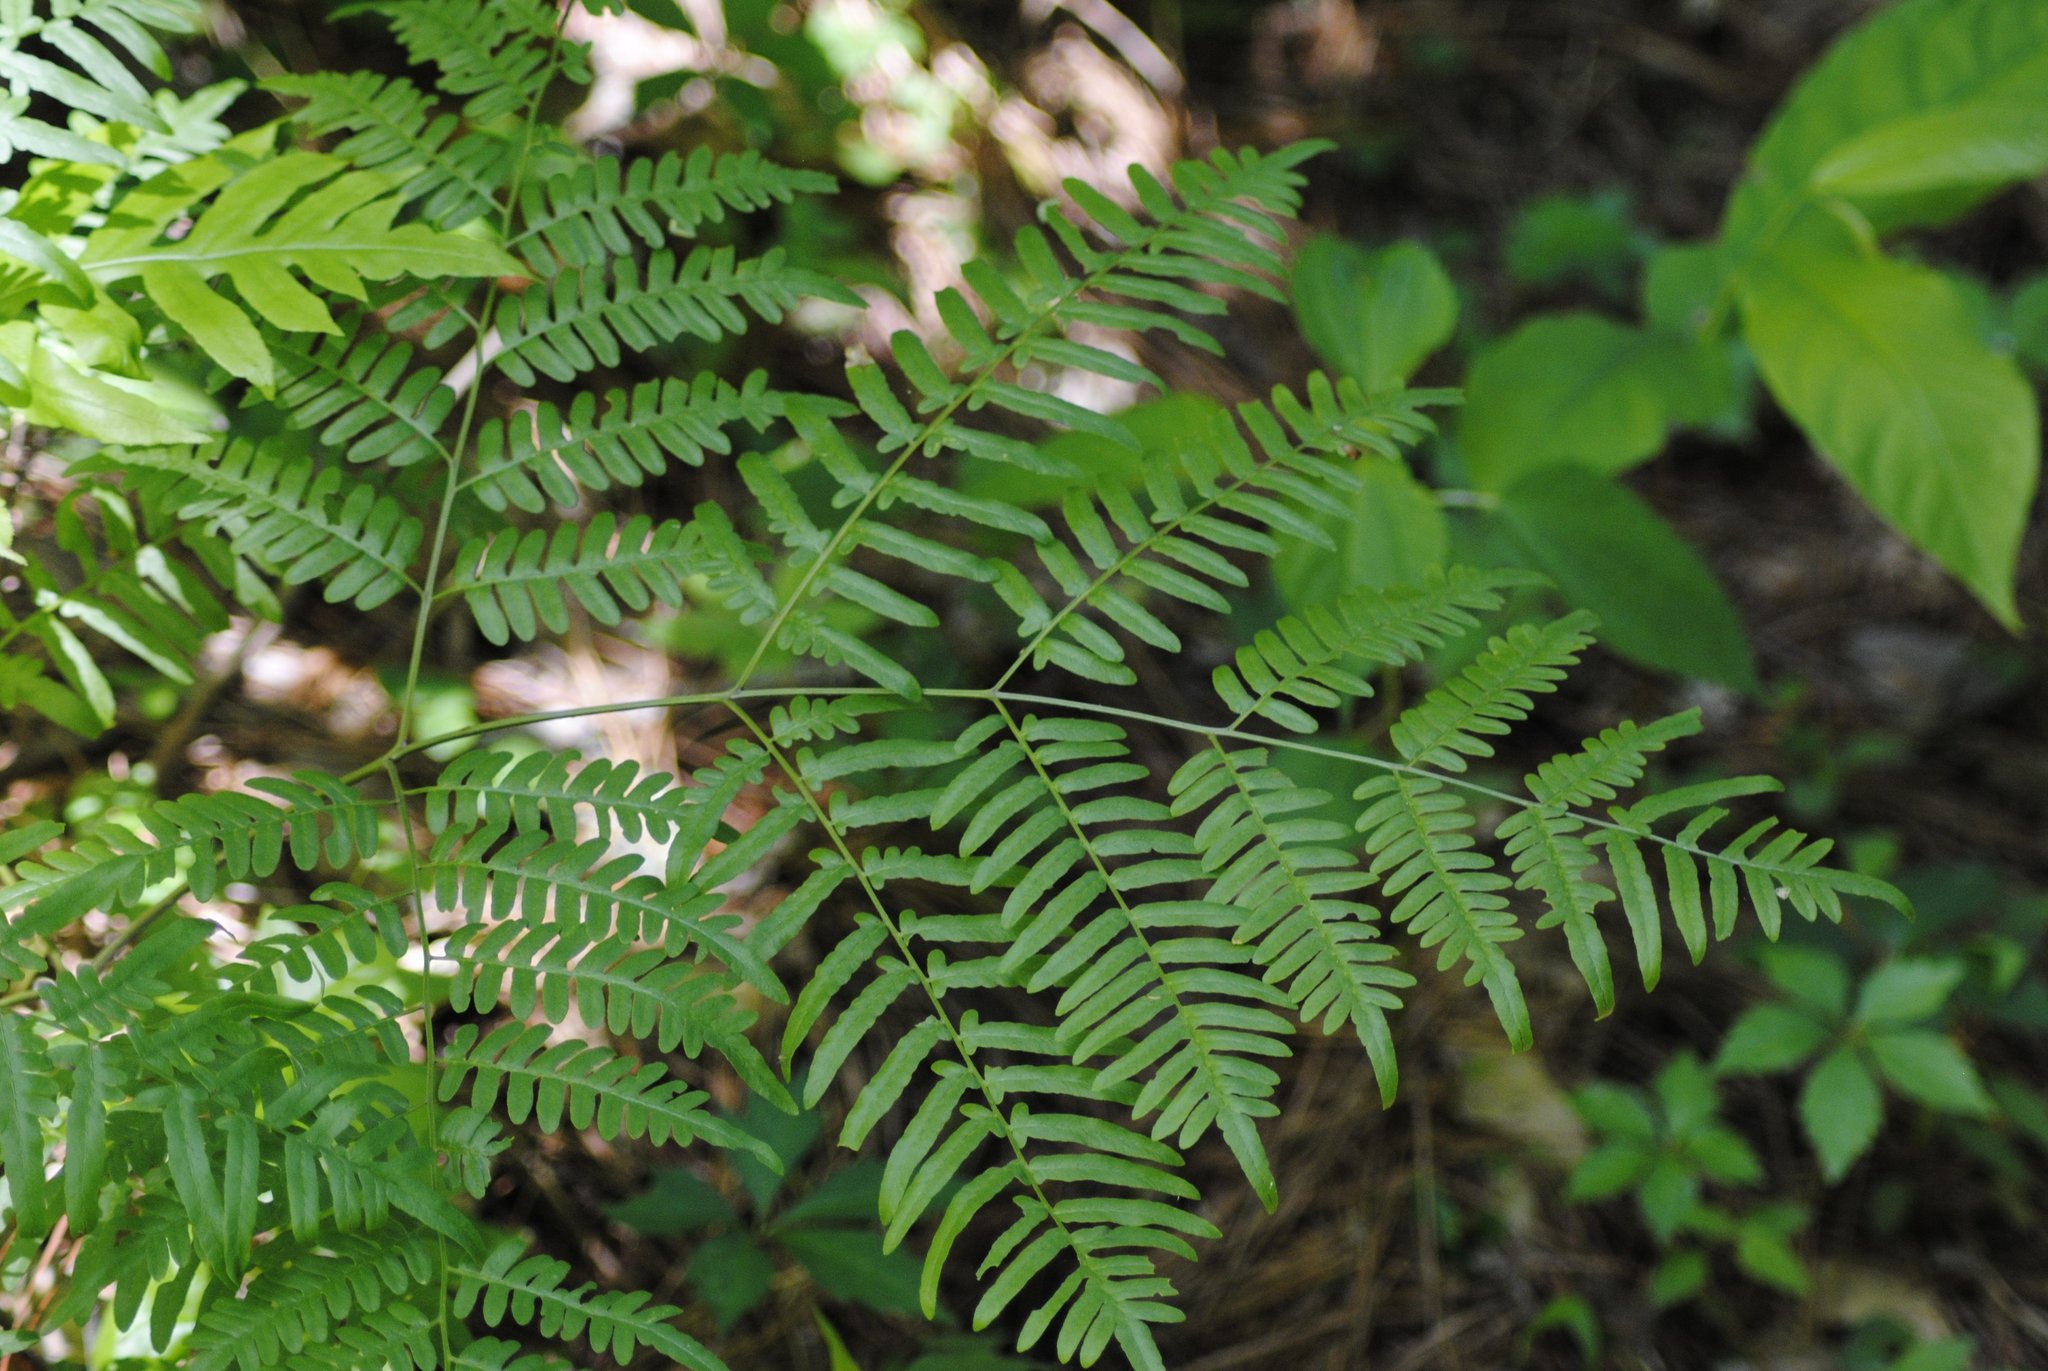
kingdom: Plantae
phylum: Tracheophyta
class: Polypodiopsida
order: Polypodiales
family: Dennstaedtiaceae
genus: Pteridium
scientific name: Pteridium aquilinum
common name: Bracken
